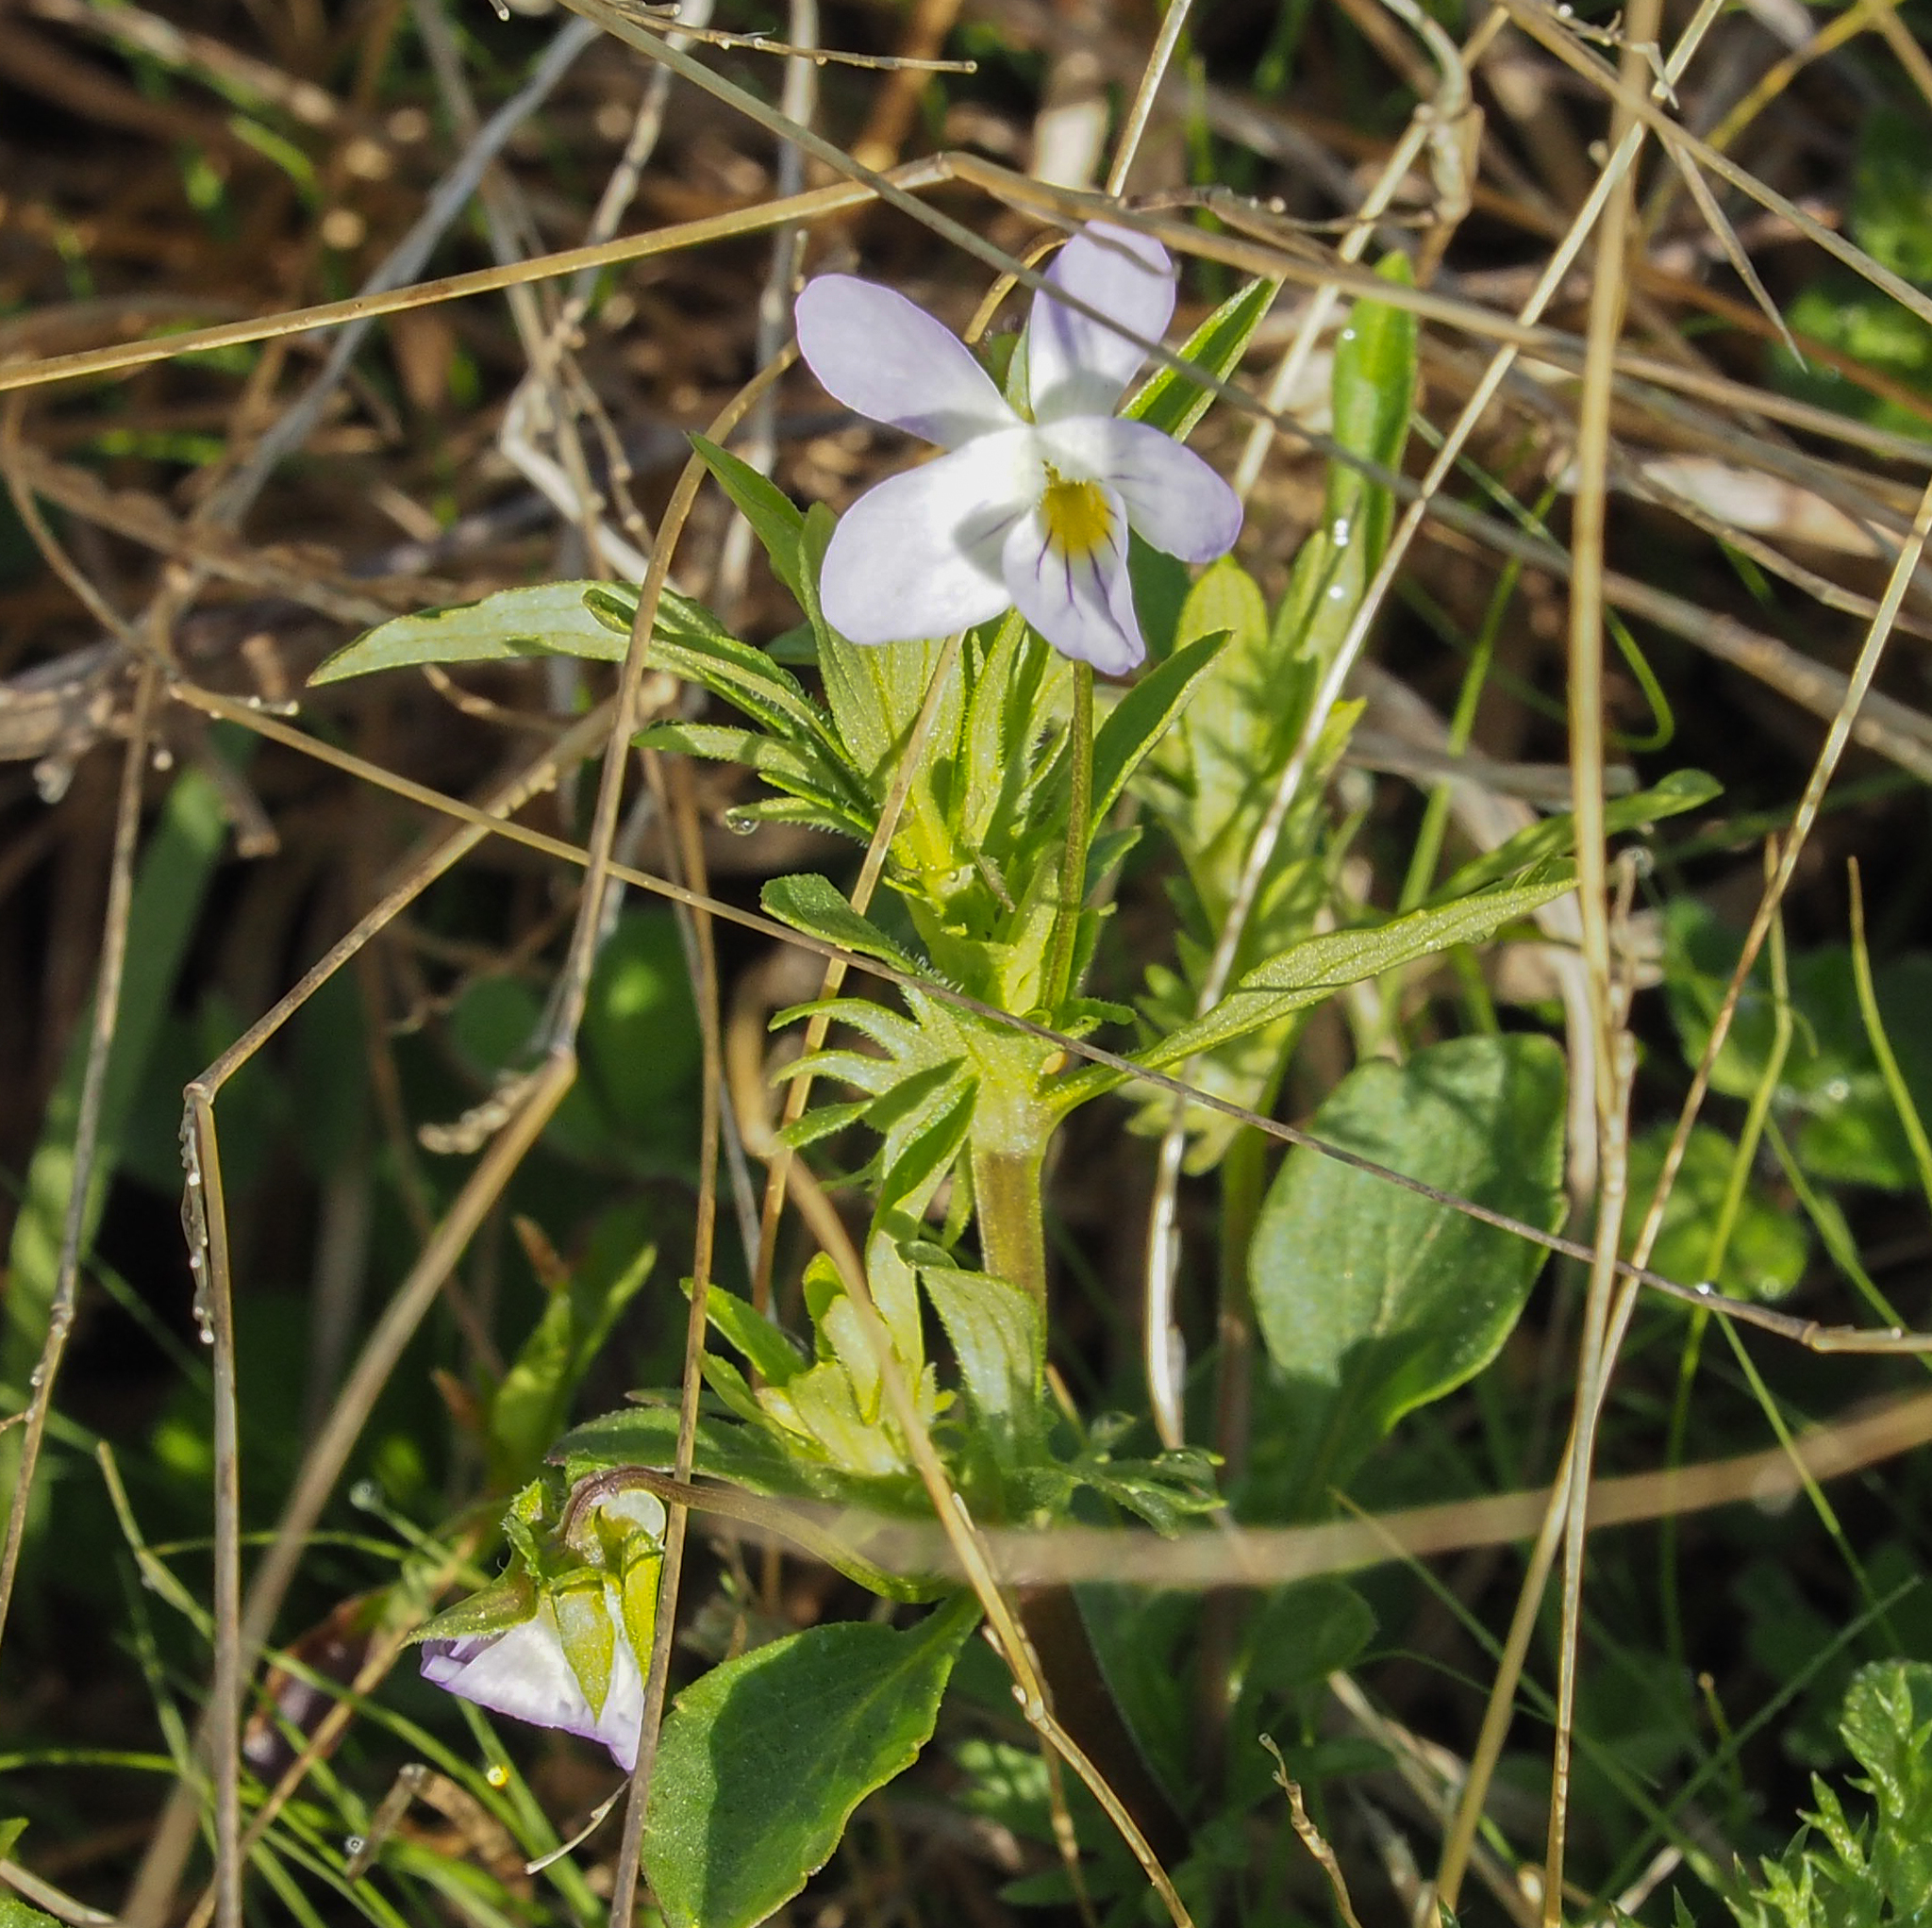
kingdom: Plantae
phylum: Tracheophyta
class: Magnoliopsida
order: Malpighiales
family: Violaceae
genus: Viola
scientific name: Viola rafinesquei
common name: American field pansy
